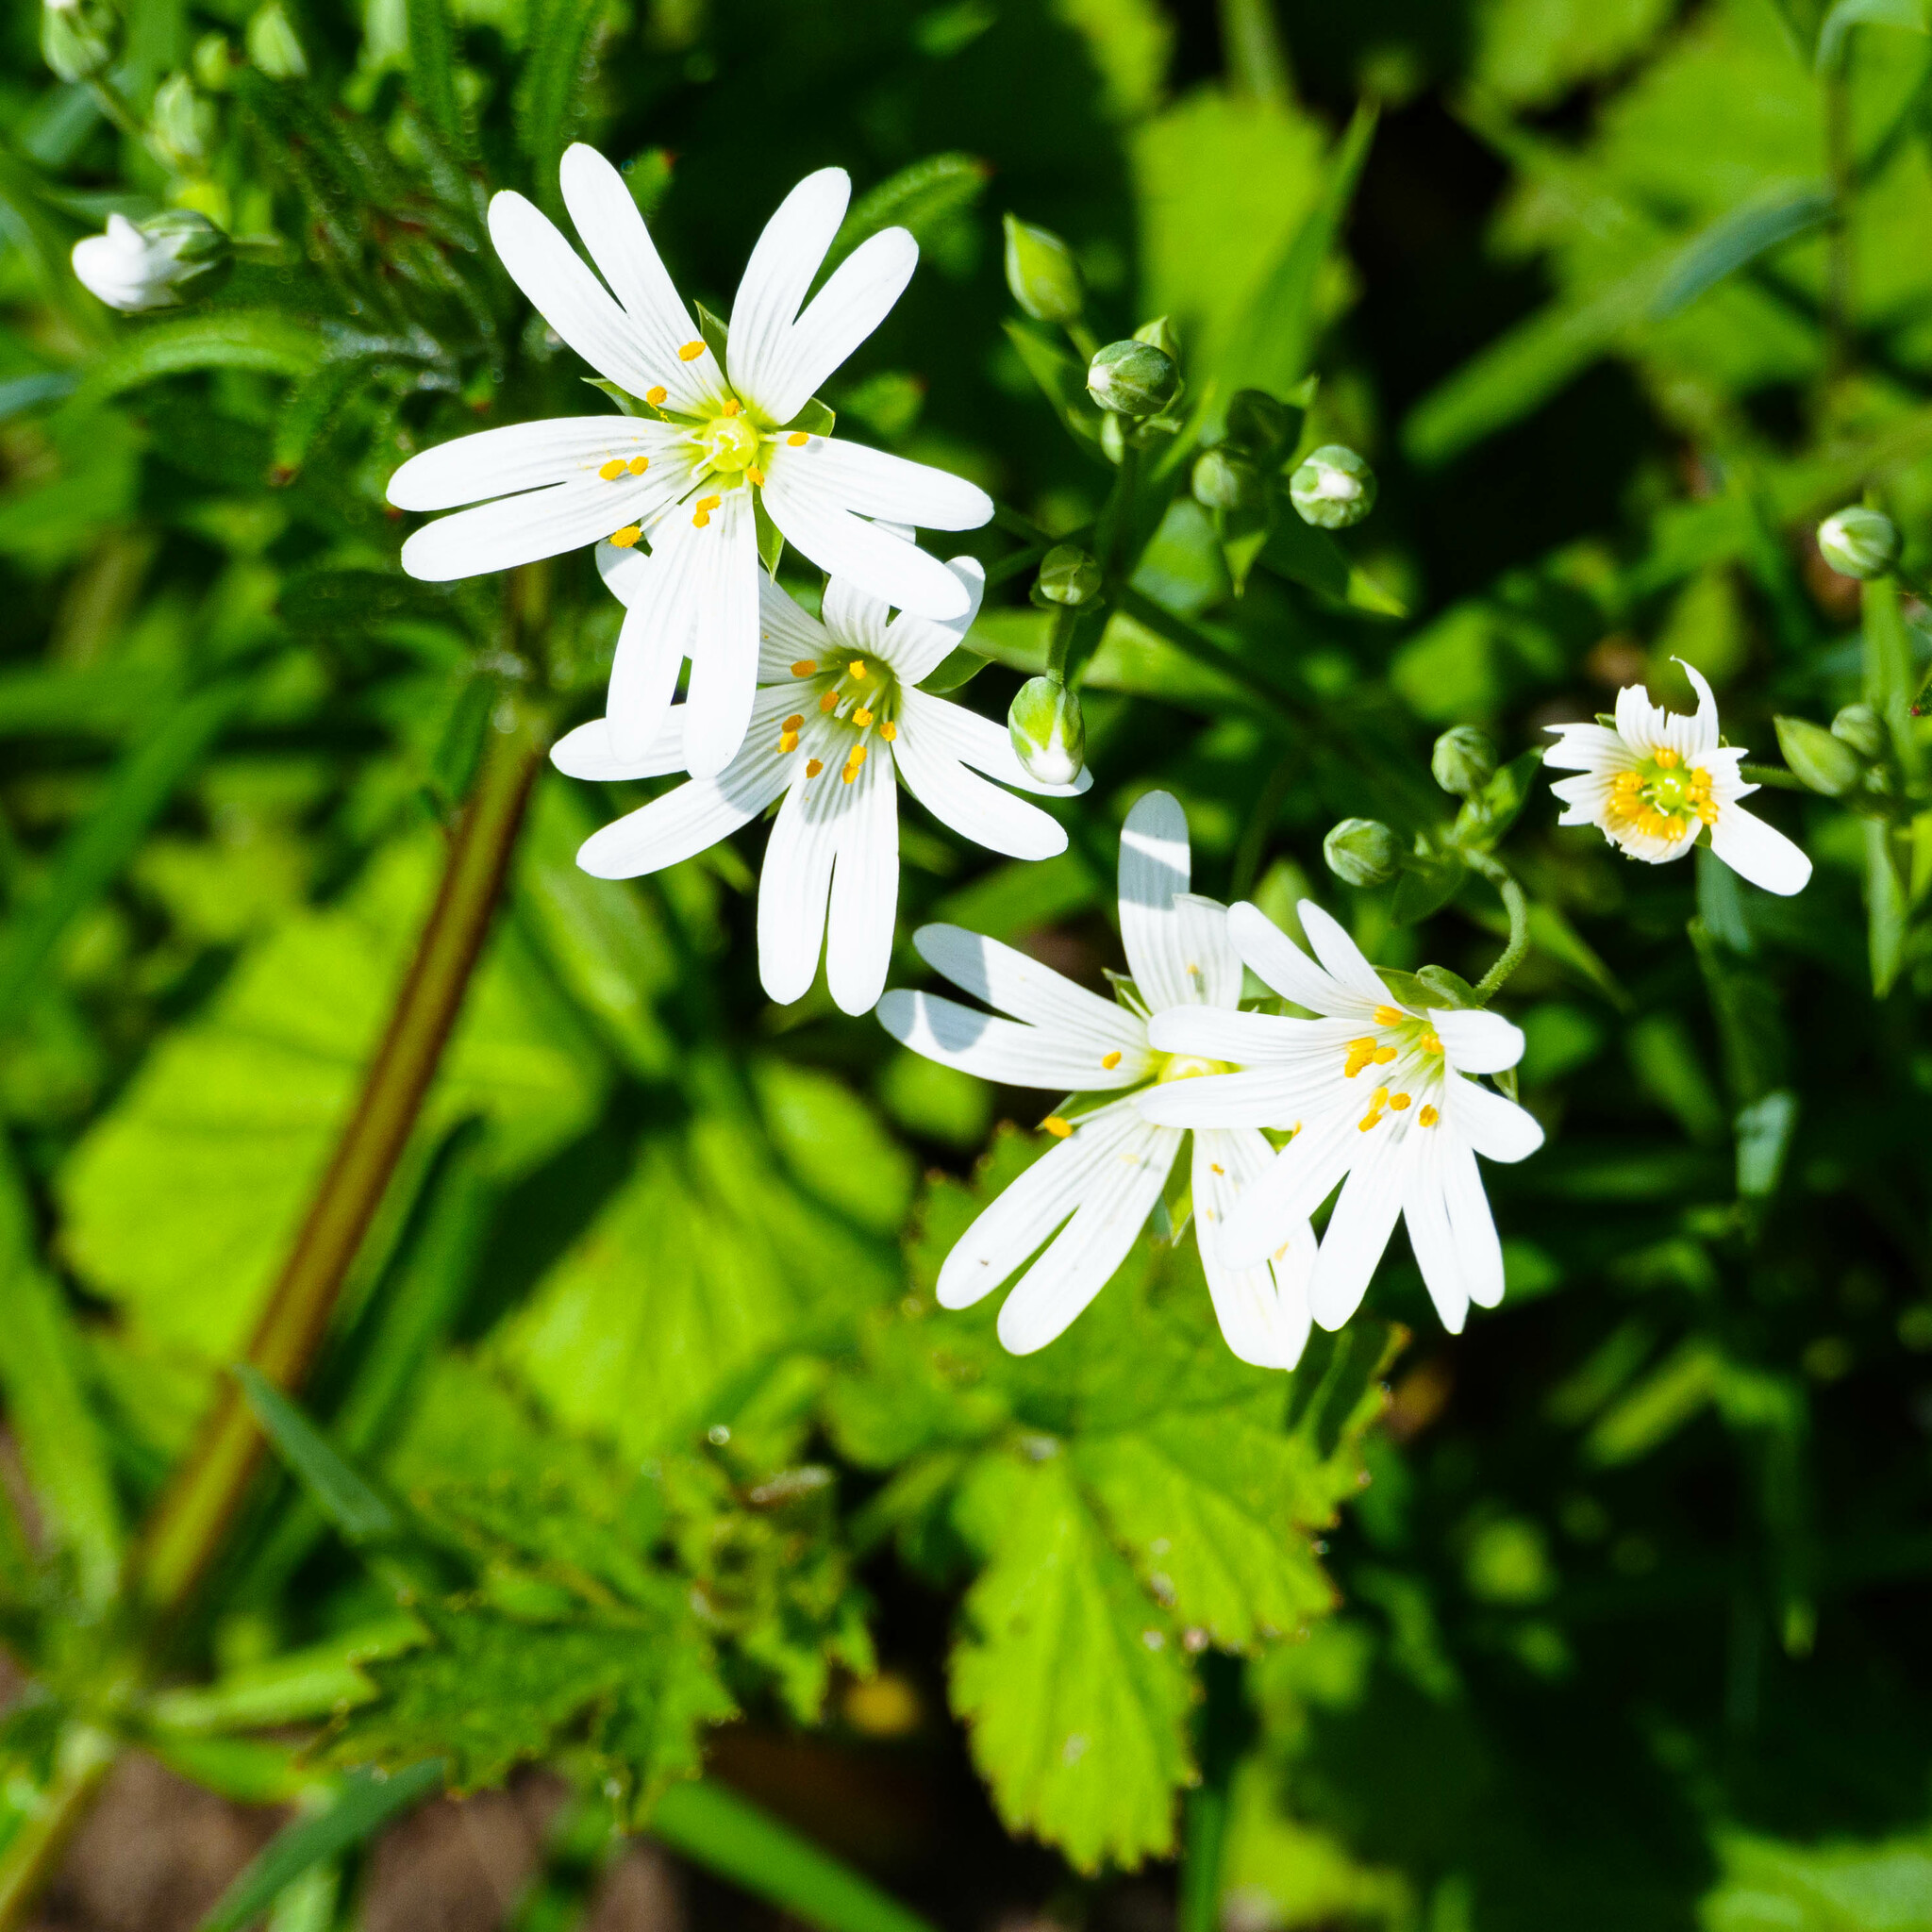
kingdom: Plantae
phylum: Tracheophyta
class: Magnoliopsida
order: Caryophyllales
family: Caryophyllaceae
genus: Rabelera
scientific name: Rabelera holostea
